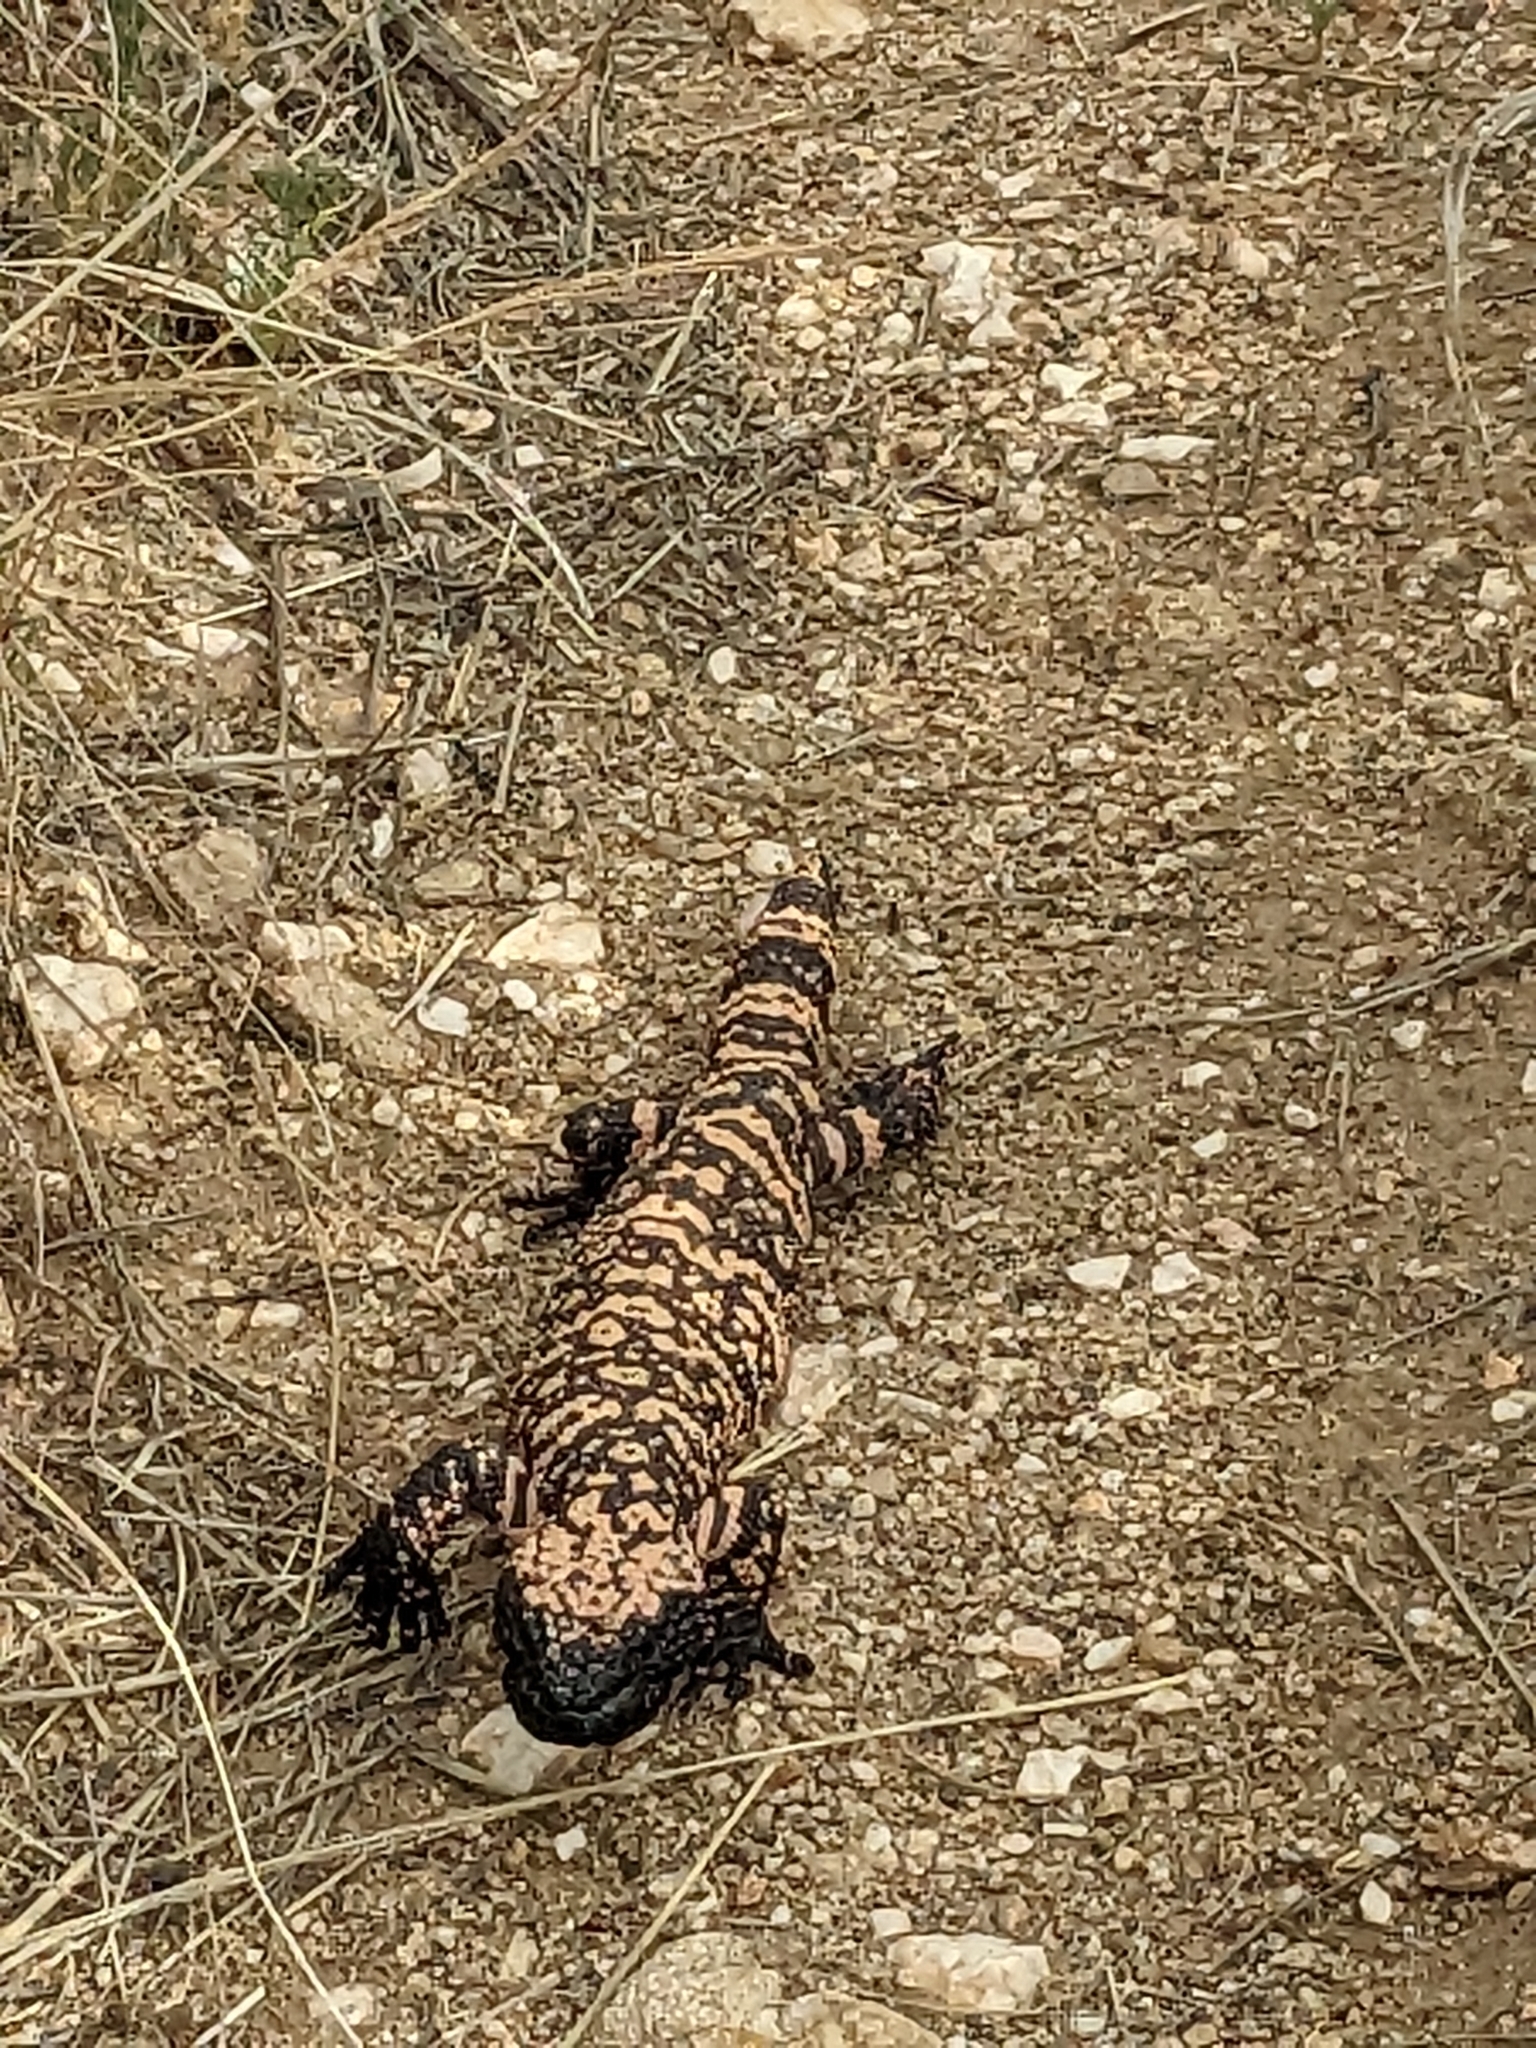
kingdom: Animalia
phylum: Chordata
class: Squamata
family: Helodermatidae
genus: Heloderma
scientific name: Heloderma suspectum
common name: Gila monster
